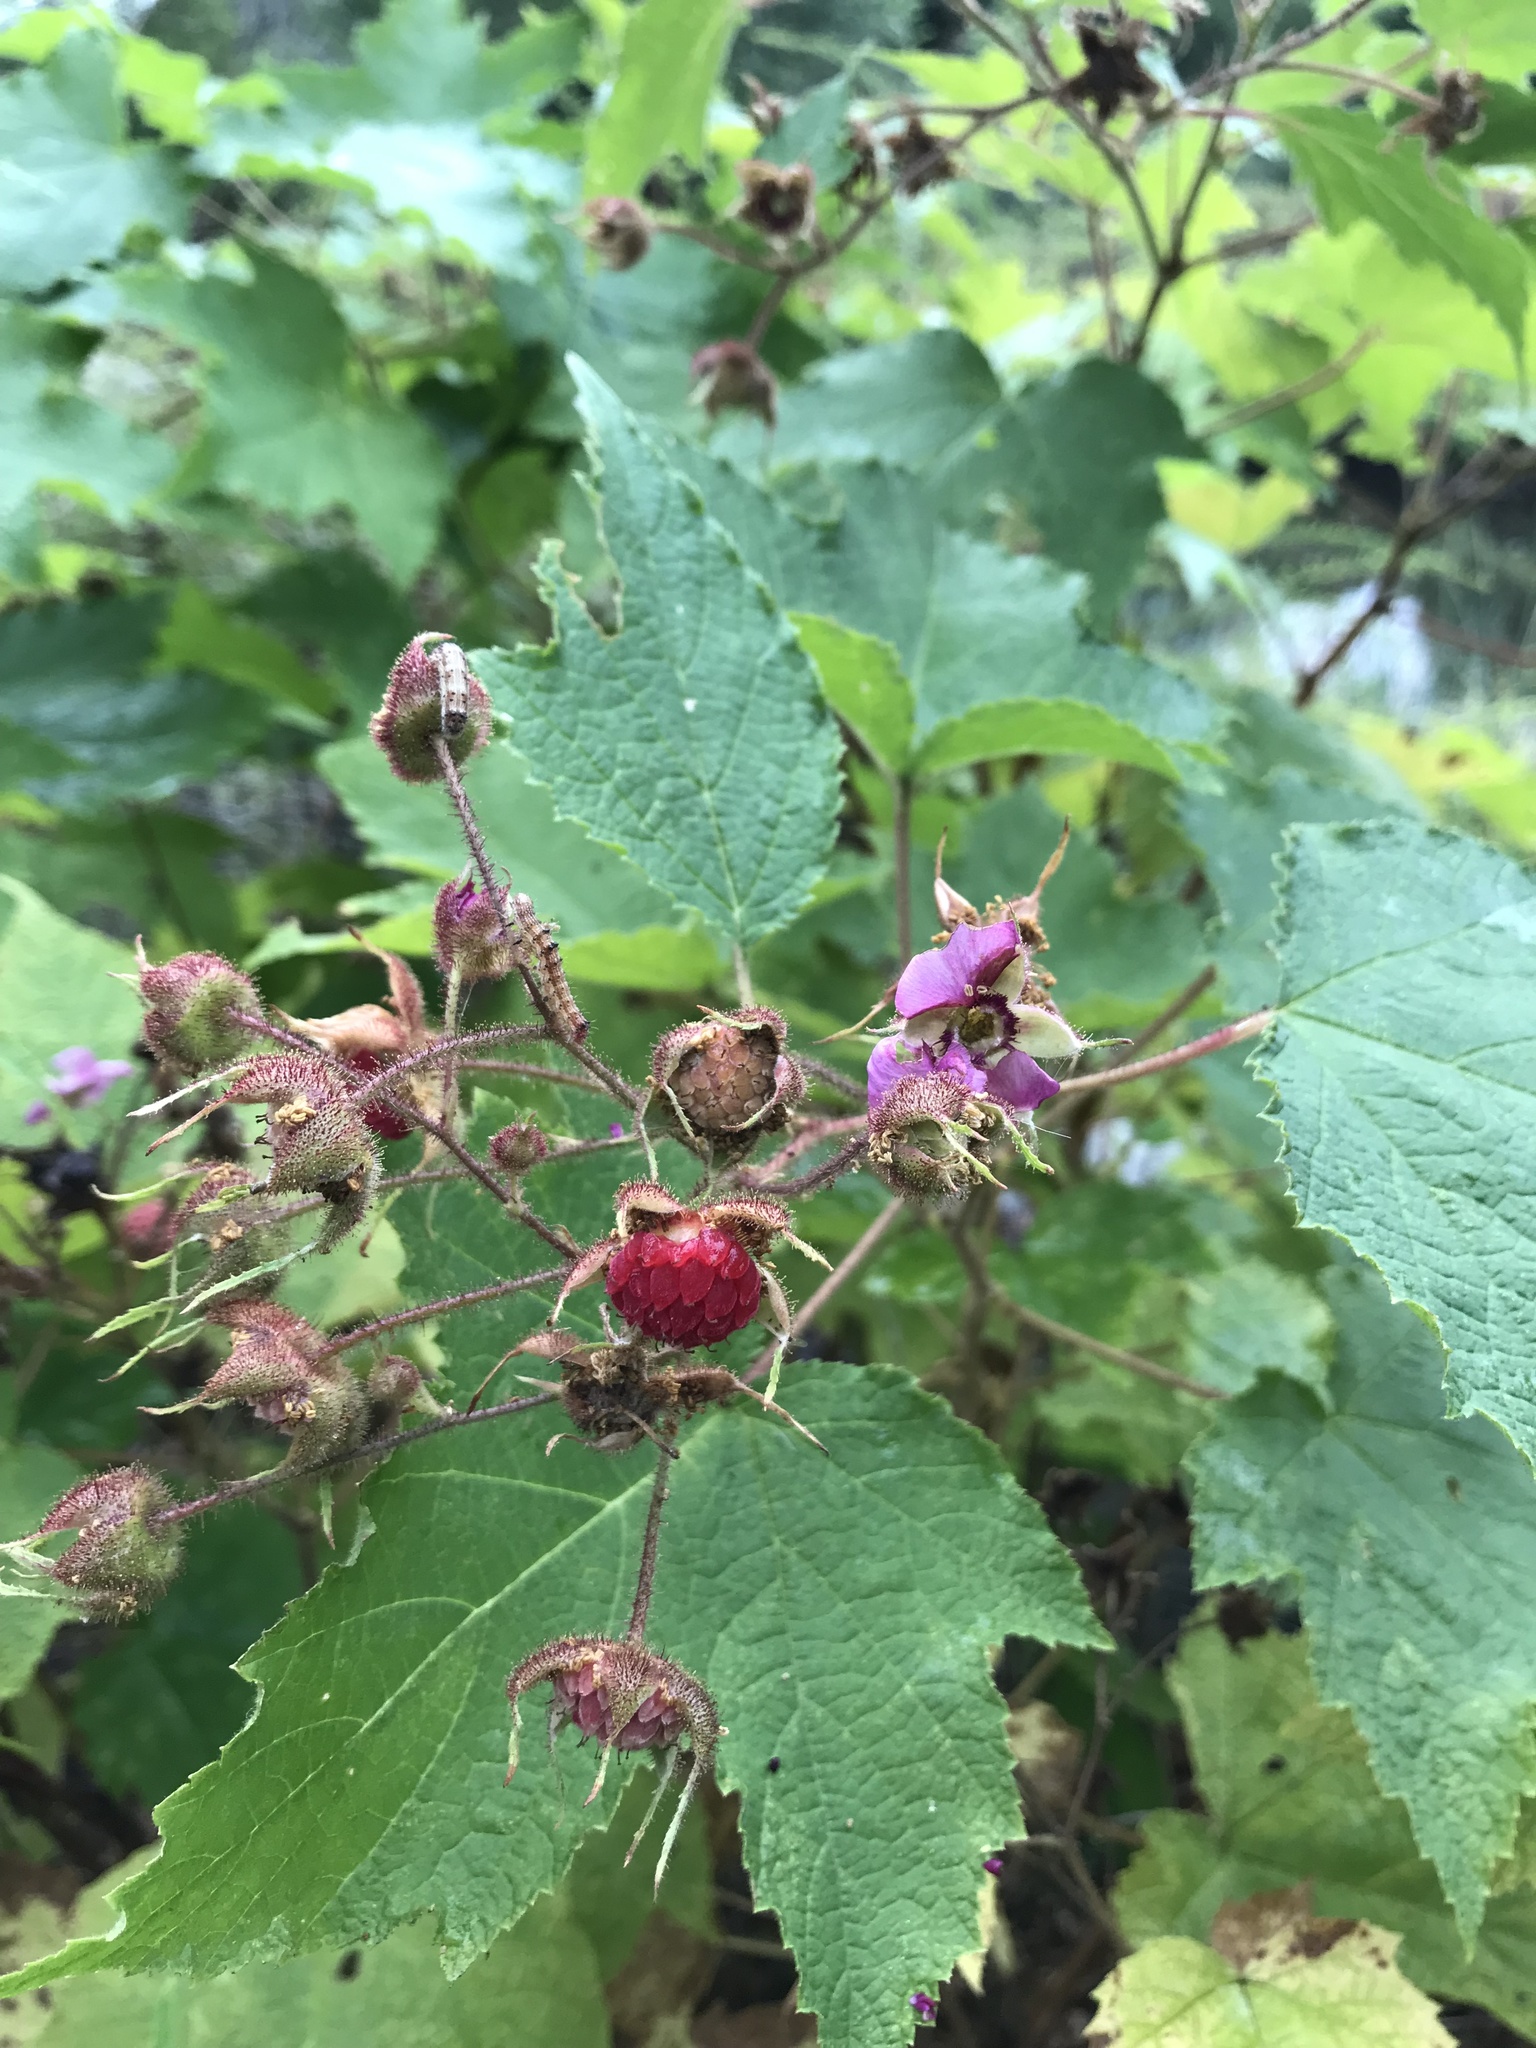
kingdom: Plantae
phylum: Tracheophyta
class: Magnoliopsida
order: Rosales
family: Rosaceae
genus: Rubus
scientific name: Rubus odoratus
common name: Purple-flowered raspberry
